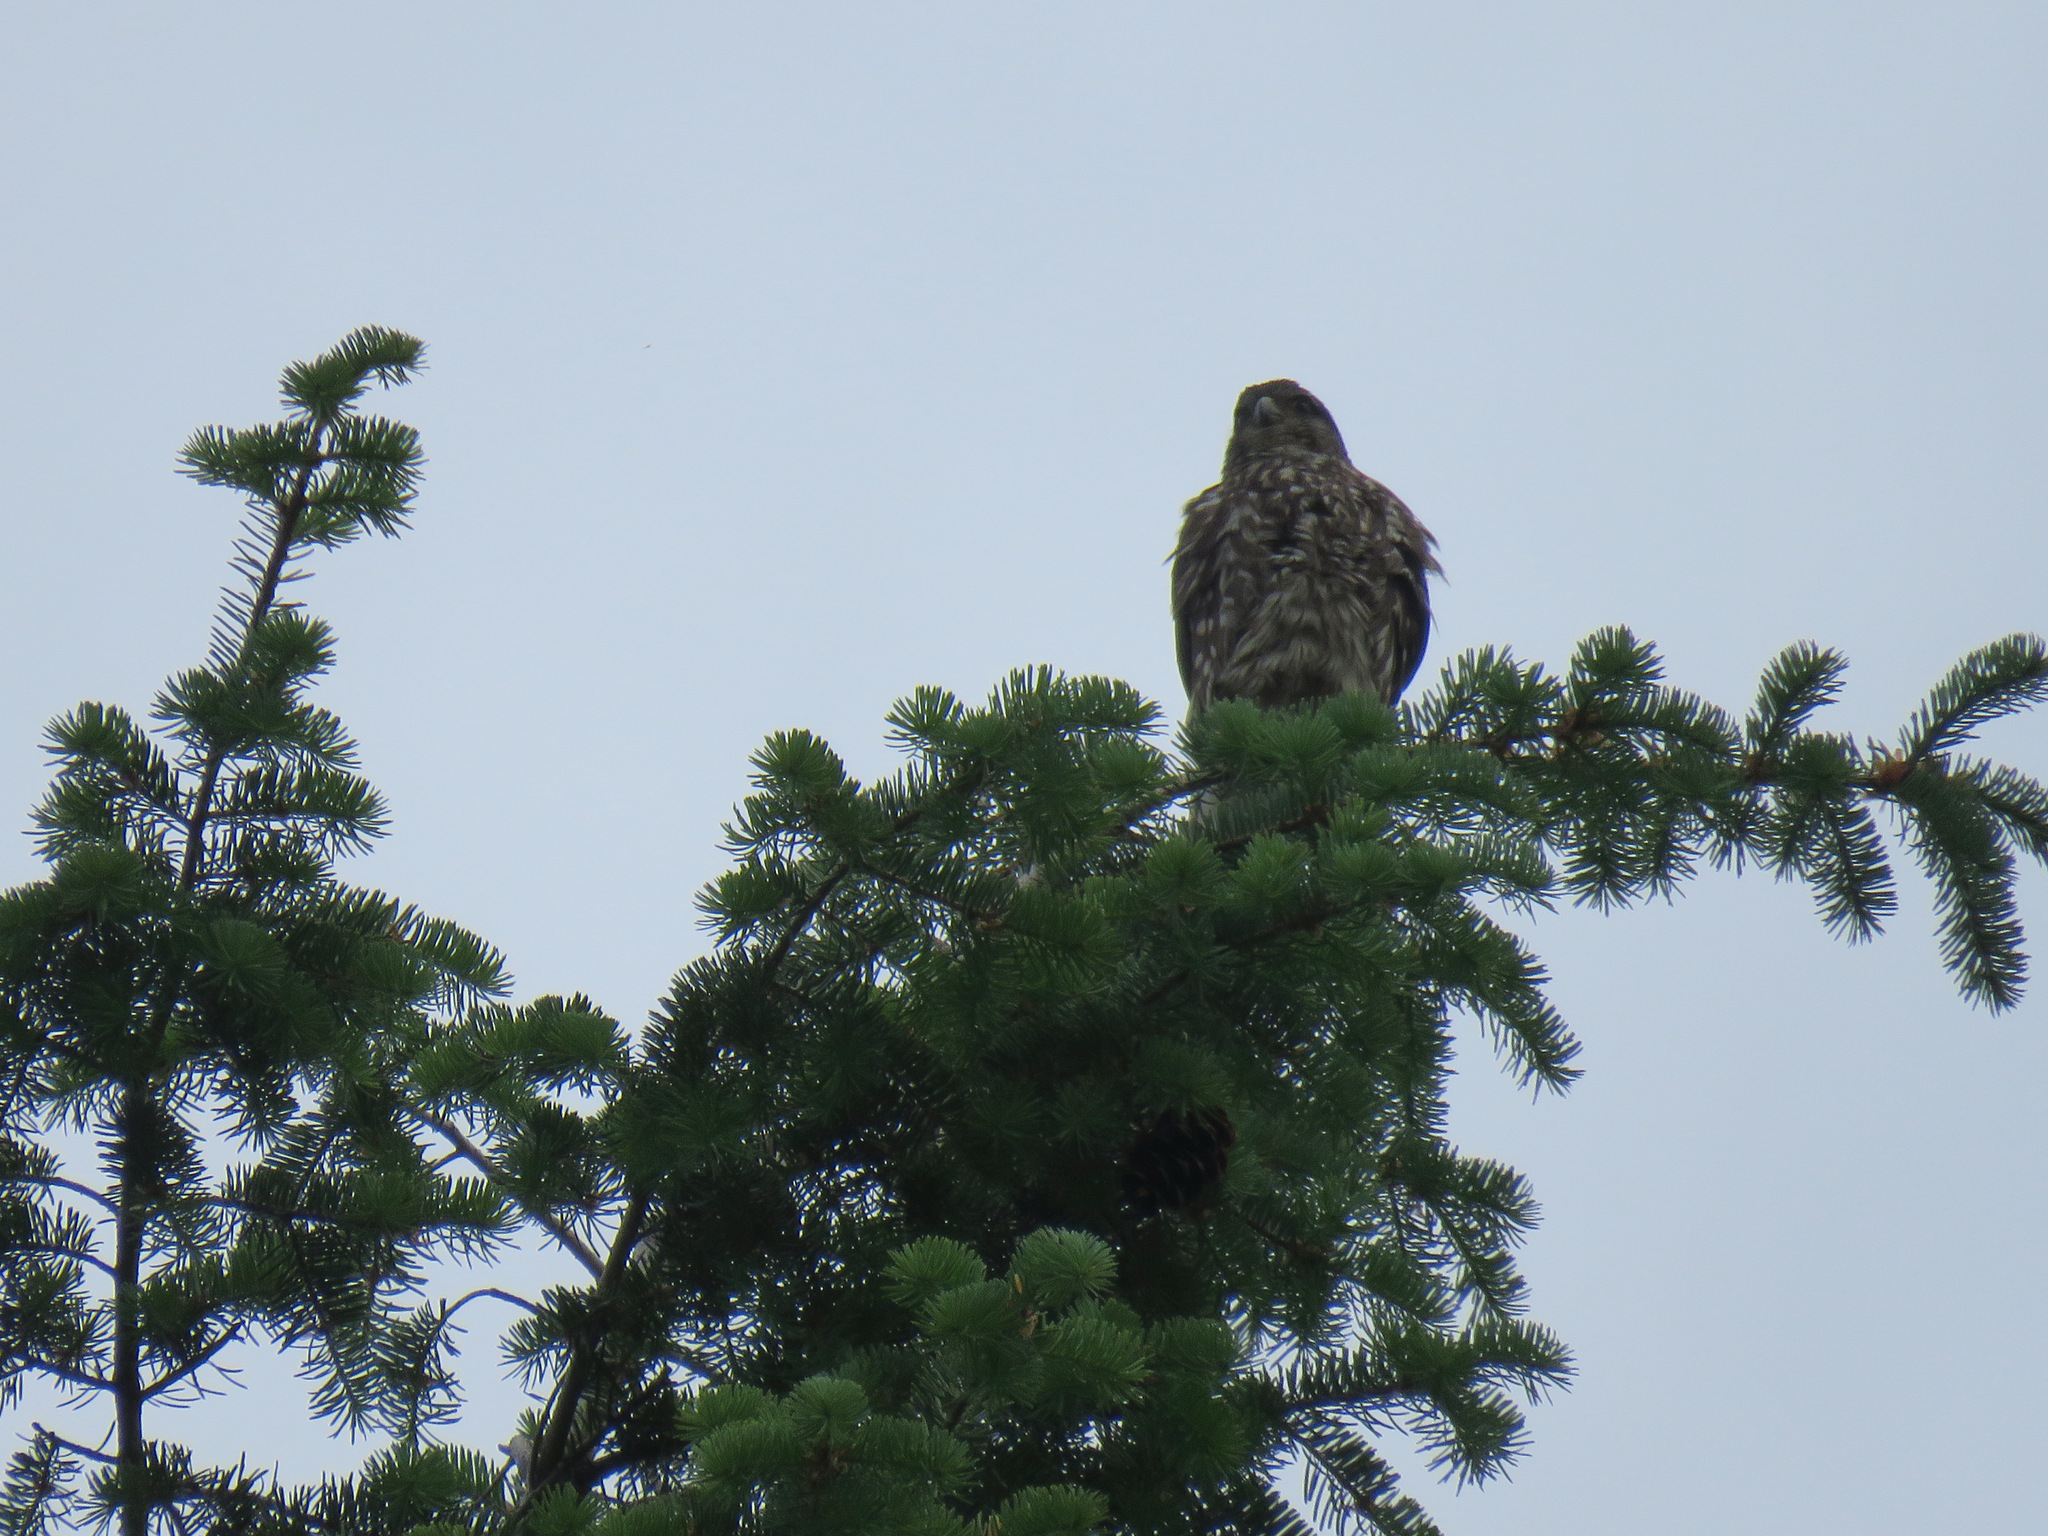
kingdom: Animalia
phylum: Chordata
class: Aves
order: Falconiformes
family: Falconidae
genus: Falco
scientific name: Falco columbarius
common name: Merlin
